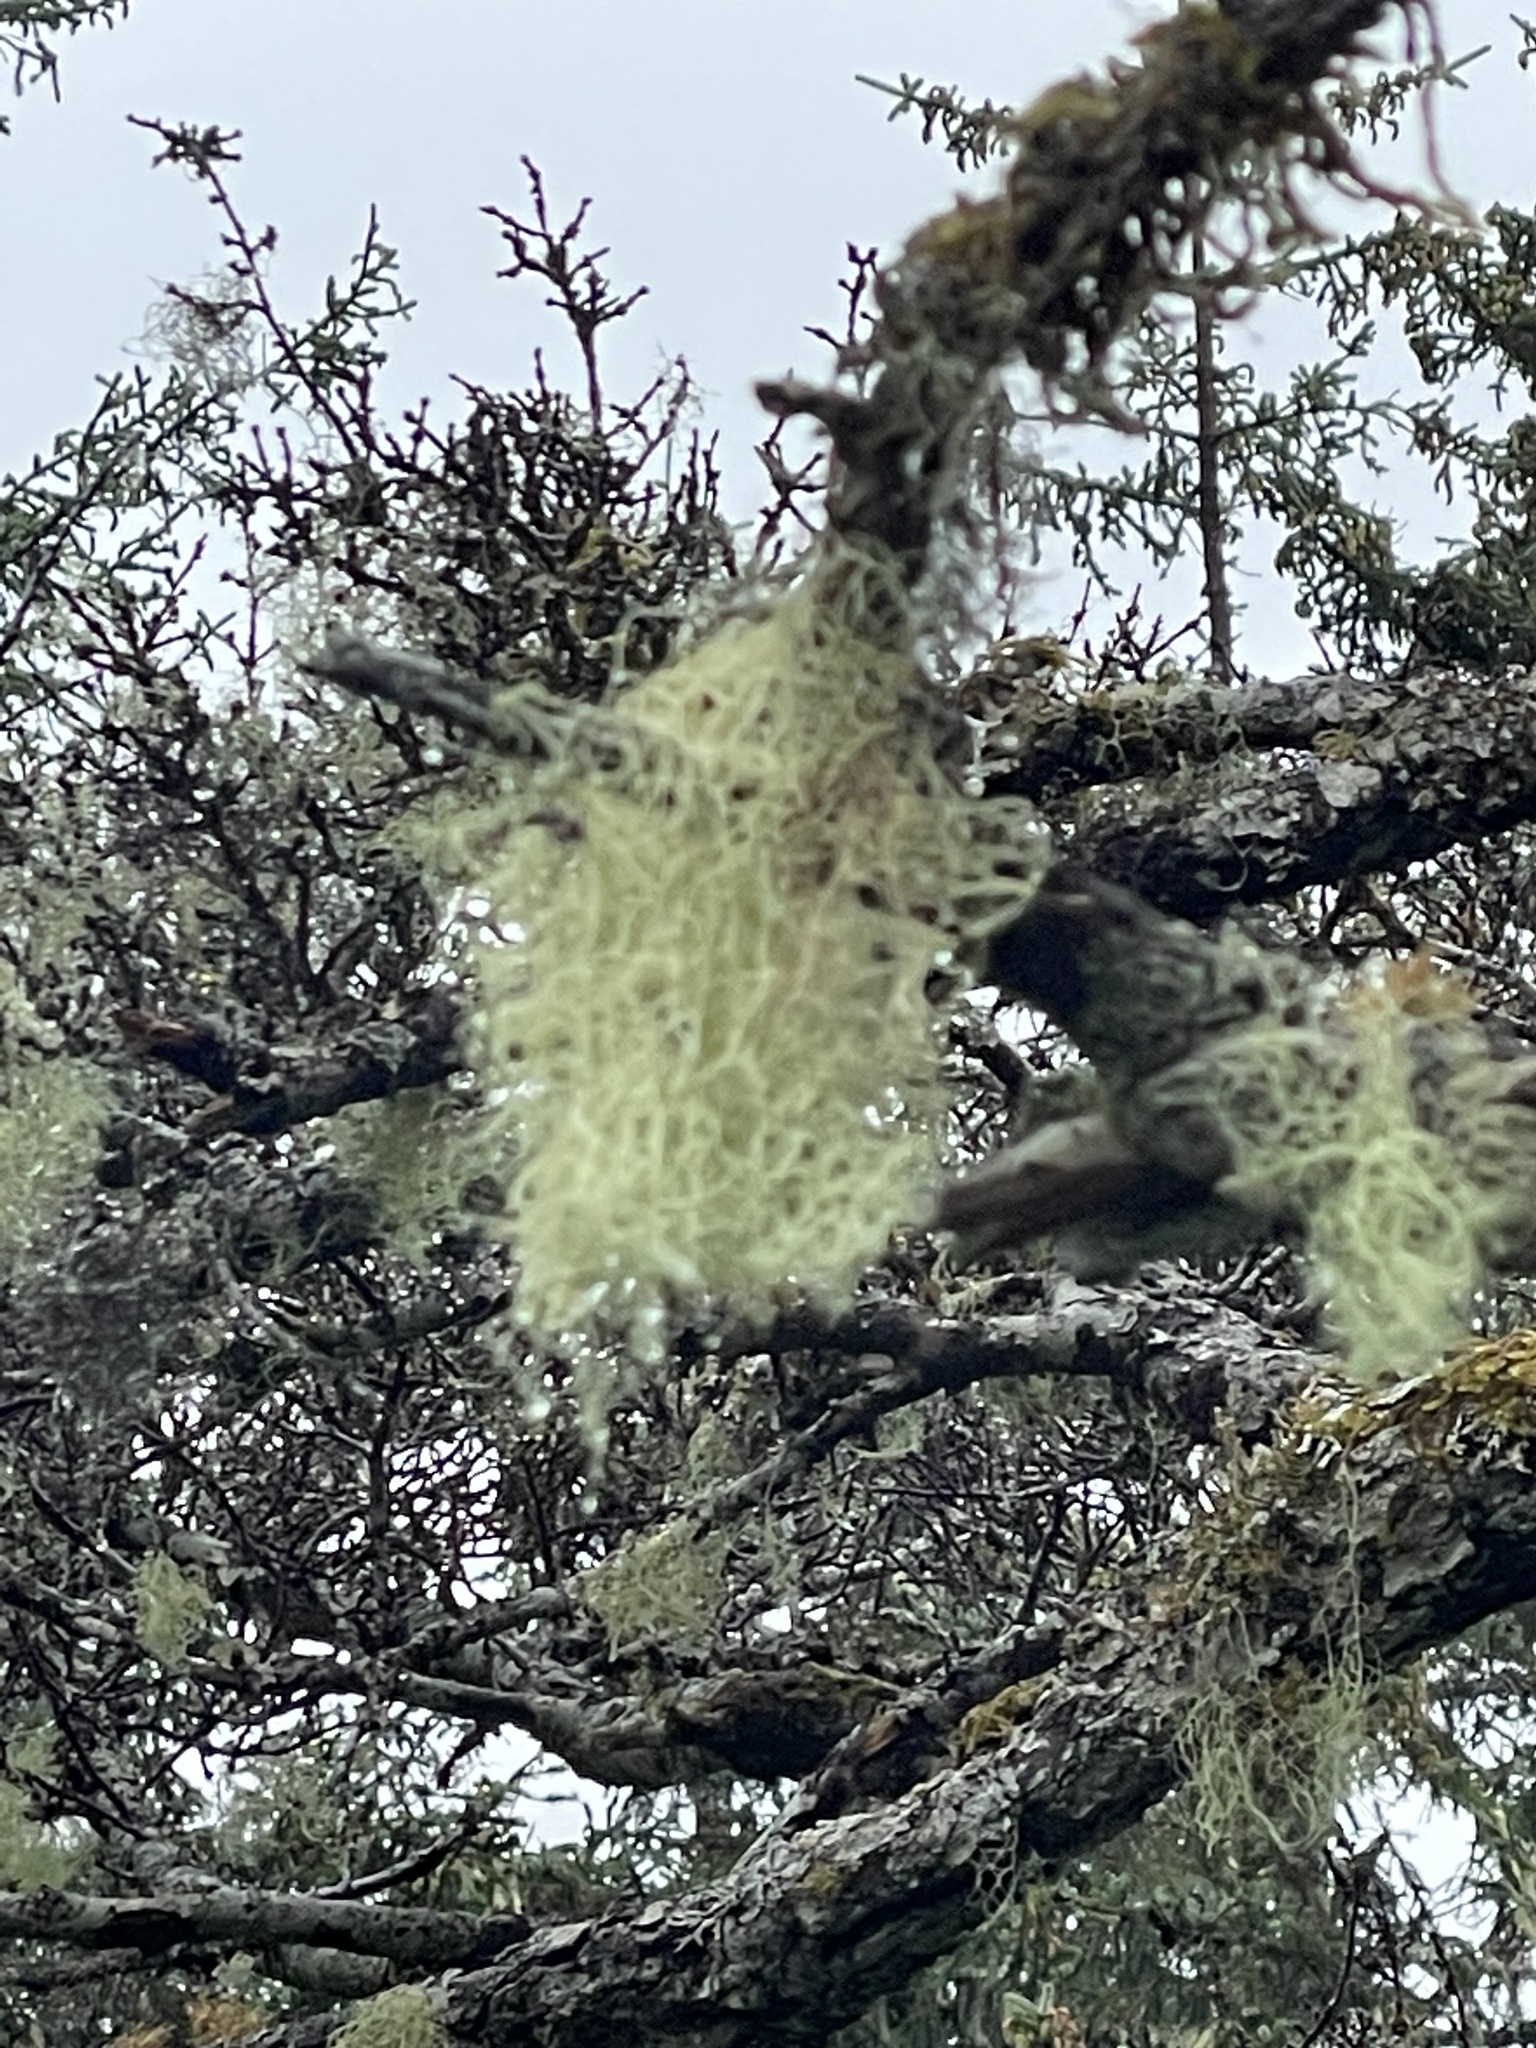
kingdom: Fungi
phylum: Ascomycota
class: Lecanoromycetes
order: Lecanorales
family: Parmeliaceae
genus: Alectoria
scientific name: Alectoria sarmentosa
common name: Witch's hair
